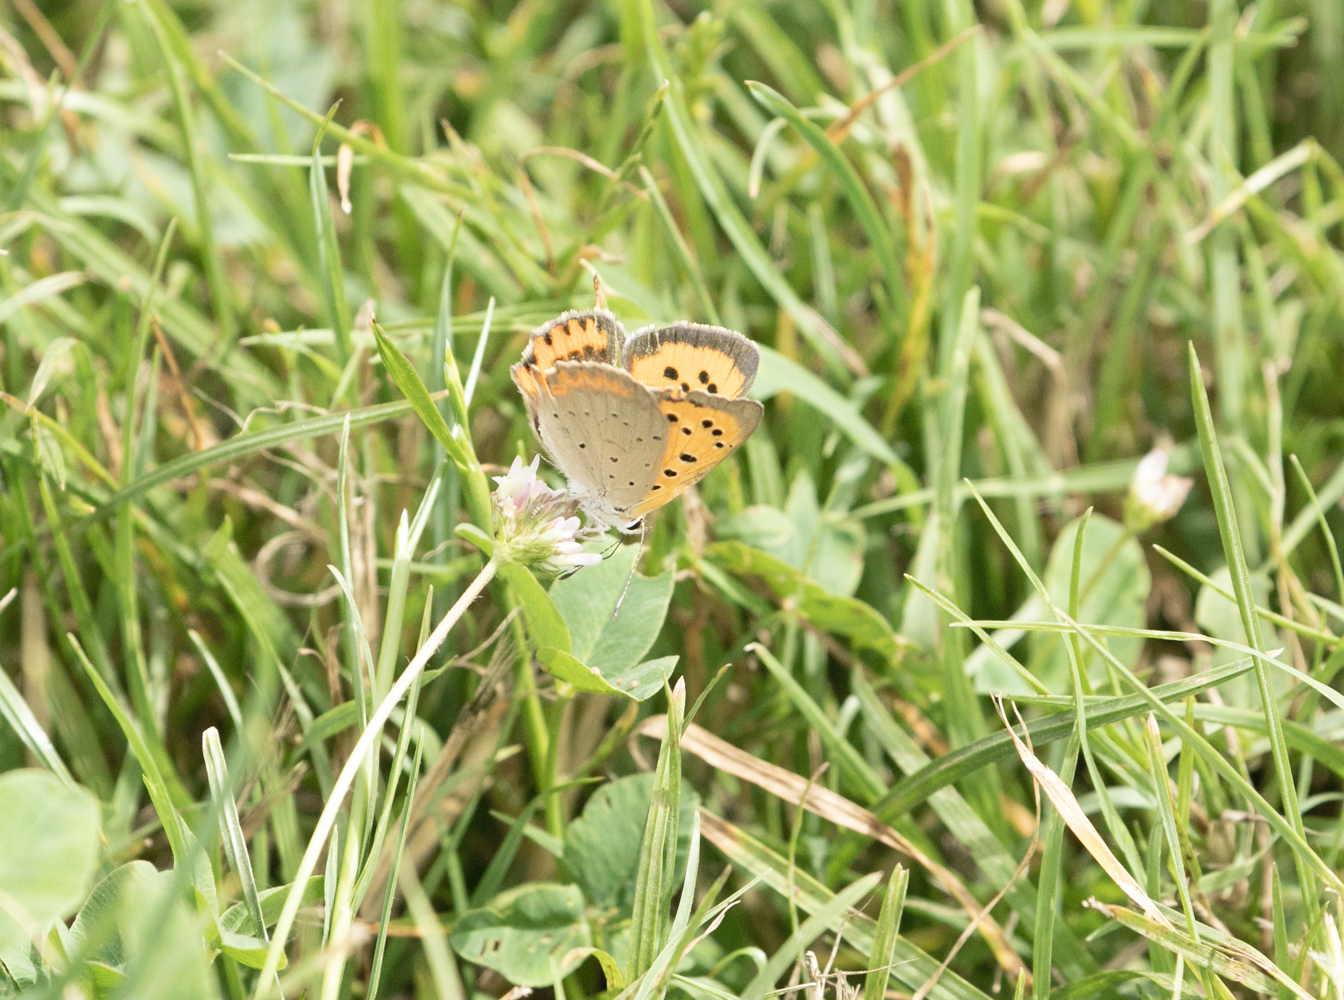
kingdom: Animalia
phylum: Arthropoda
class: Insecta
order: Lepidoptera
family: Lycaenidae
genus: Lycaena
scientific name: Lycaena phlaeas
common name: Small copper
